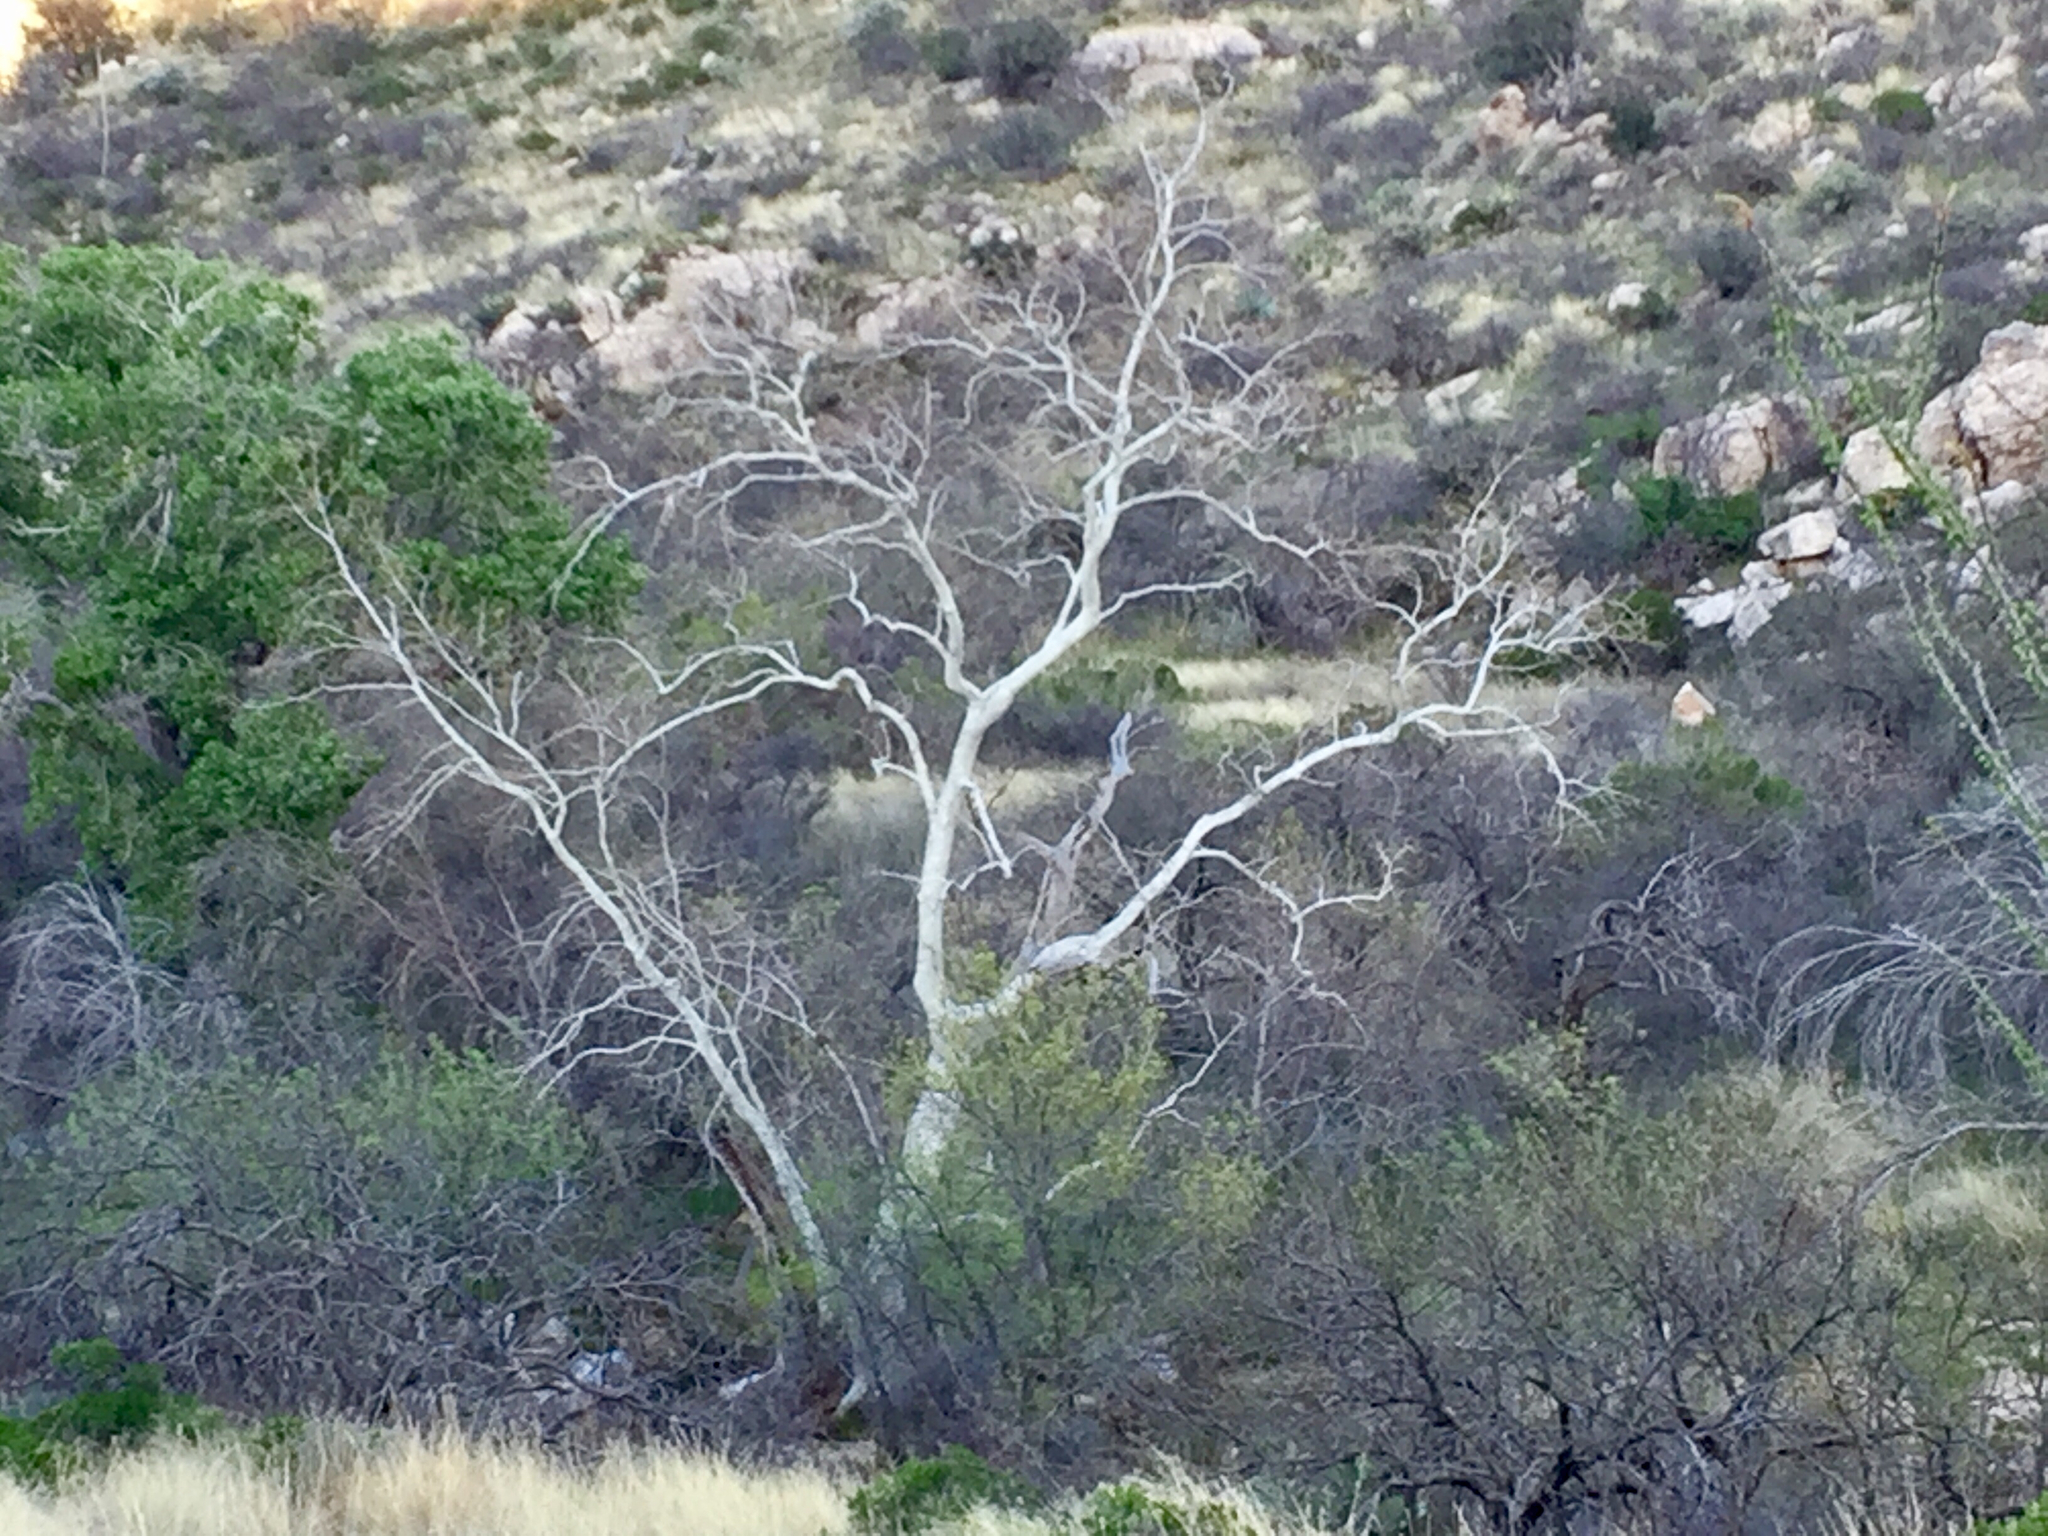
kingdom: Plantae
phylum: Tracheophyta
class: Magnoliopsida
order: Proteales
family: Platanaceae
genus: Platanus
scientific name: Platanus wrightii
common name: Arizona sycamore
